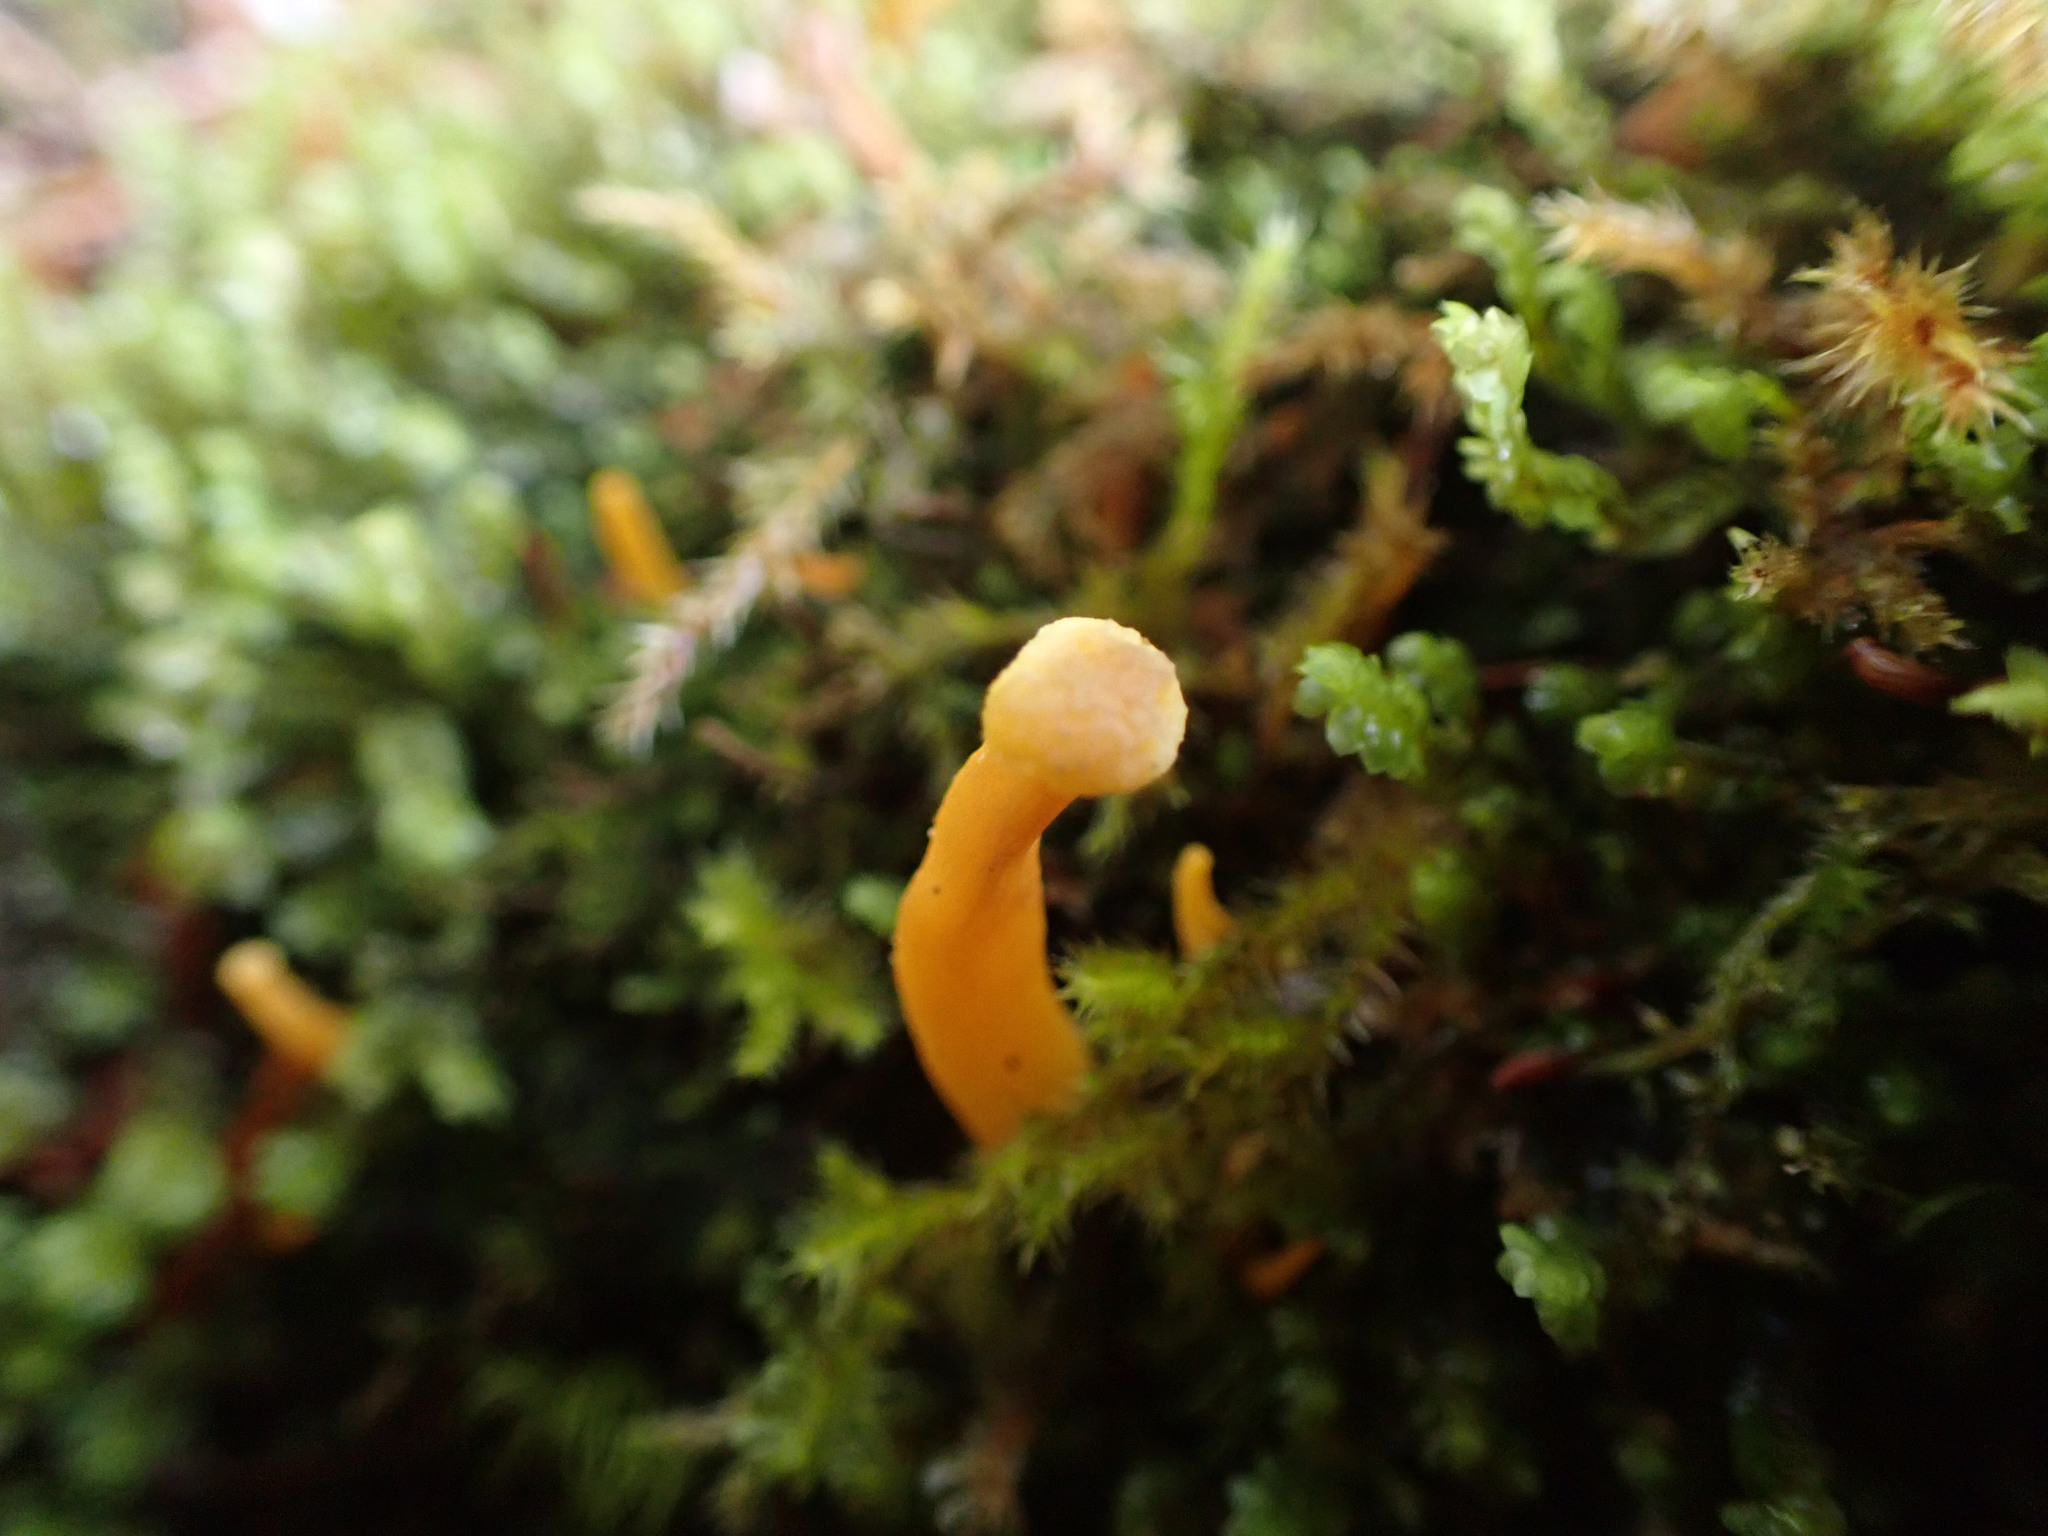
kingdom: Fungi
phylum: Basidiomycota
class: Agaricomycetes
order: Cantharellales
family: Hydnaceae
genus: Craterellus
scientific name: Craterellus tubaeformis
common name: Yellowfoot
